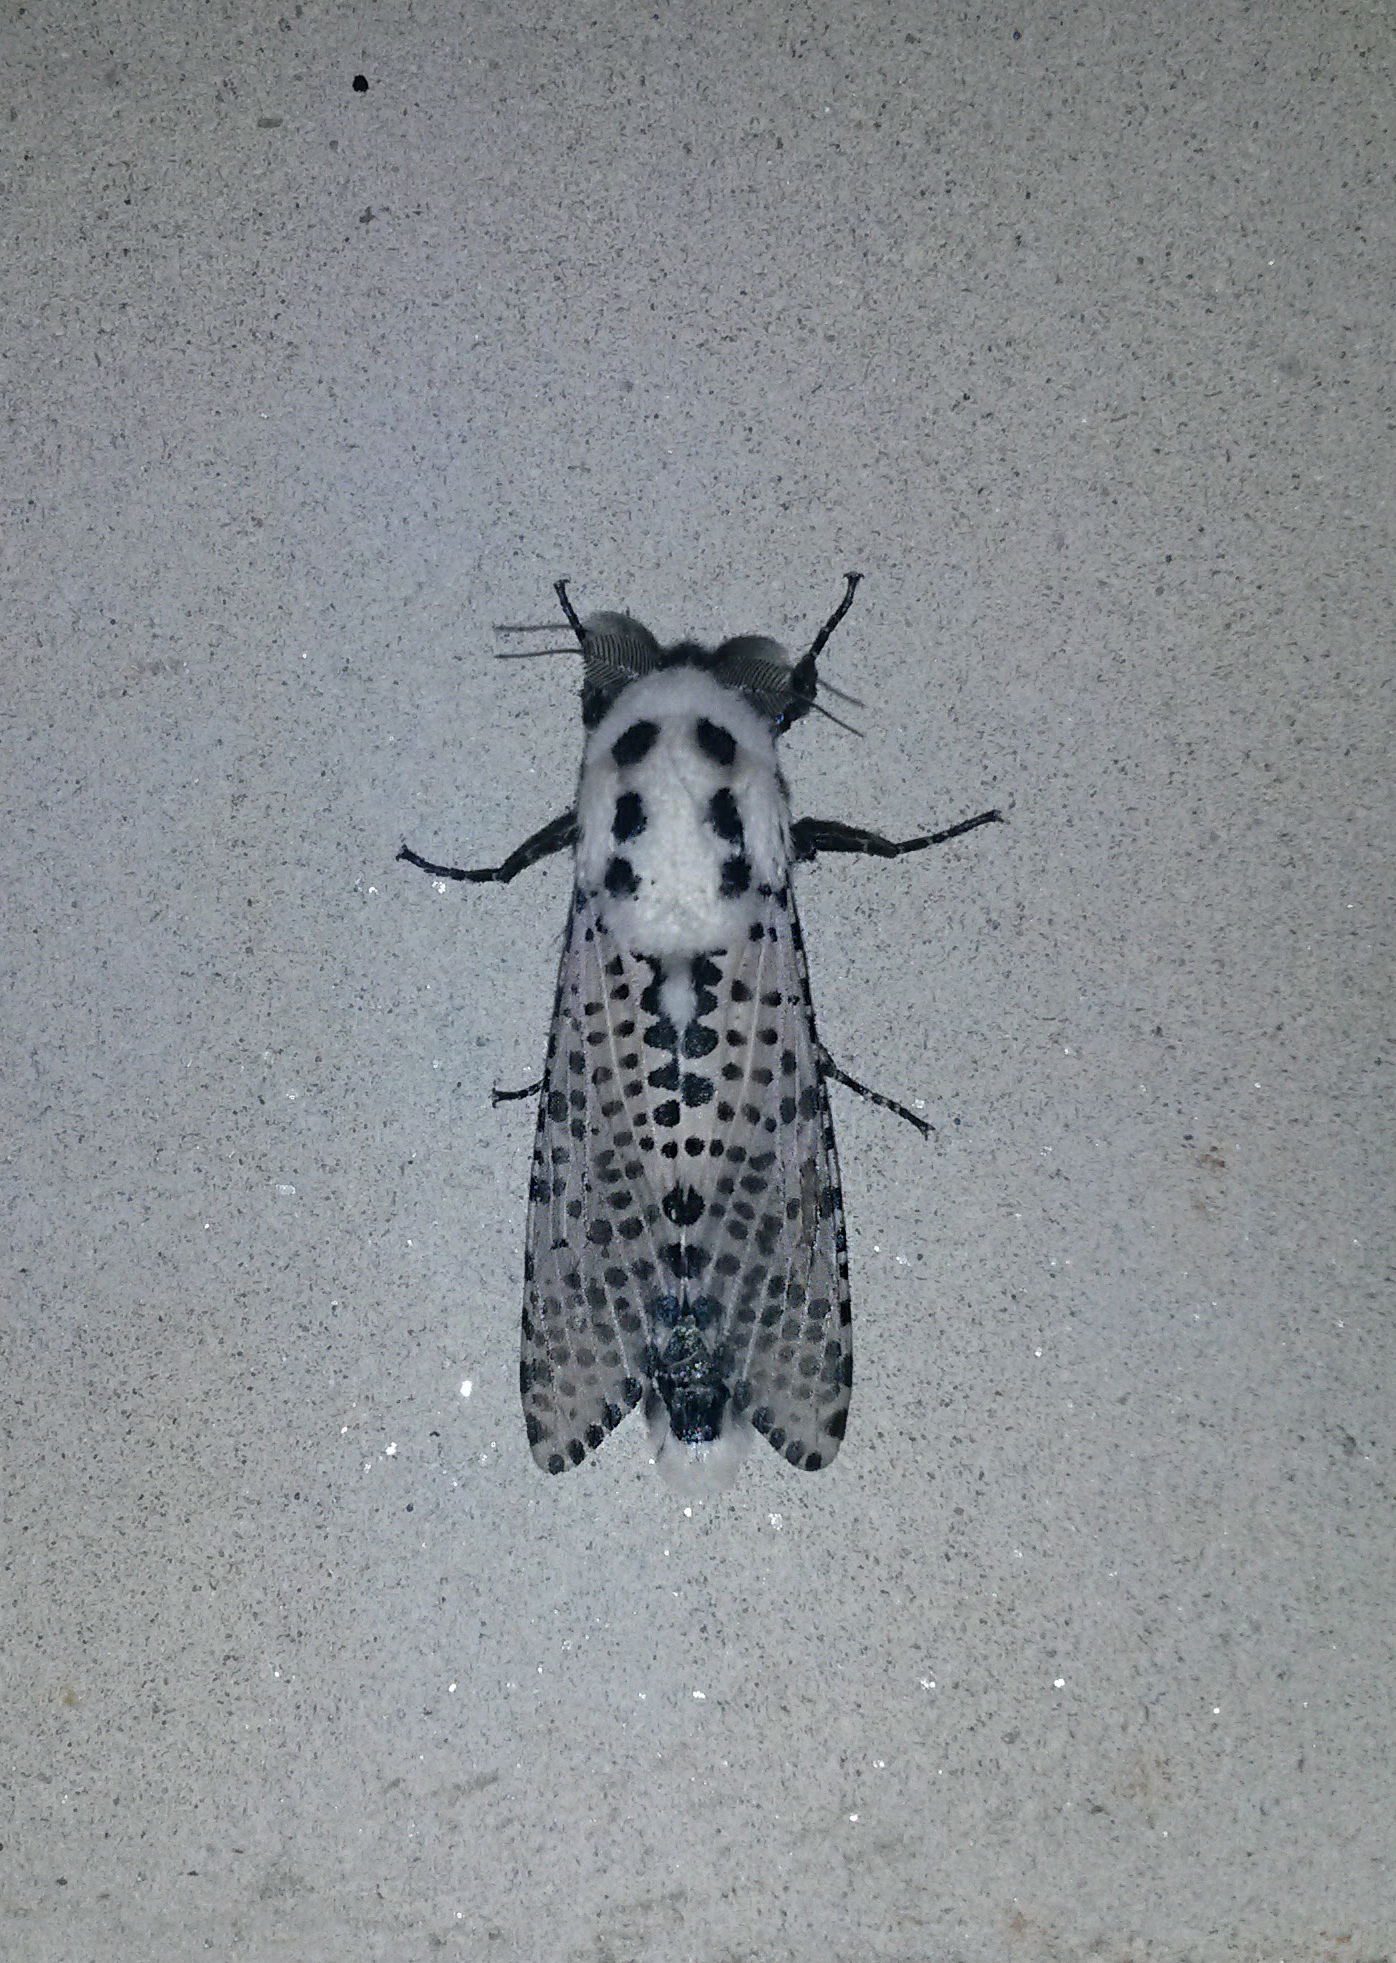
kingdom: Animalia
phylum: Arthropoda
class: Insecta
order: Lepidoptera
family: Cossidae
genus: Zeuzera
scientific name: Zeuzera pyrina
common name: Leopard moth
